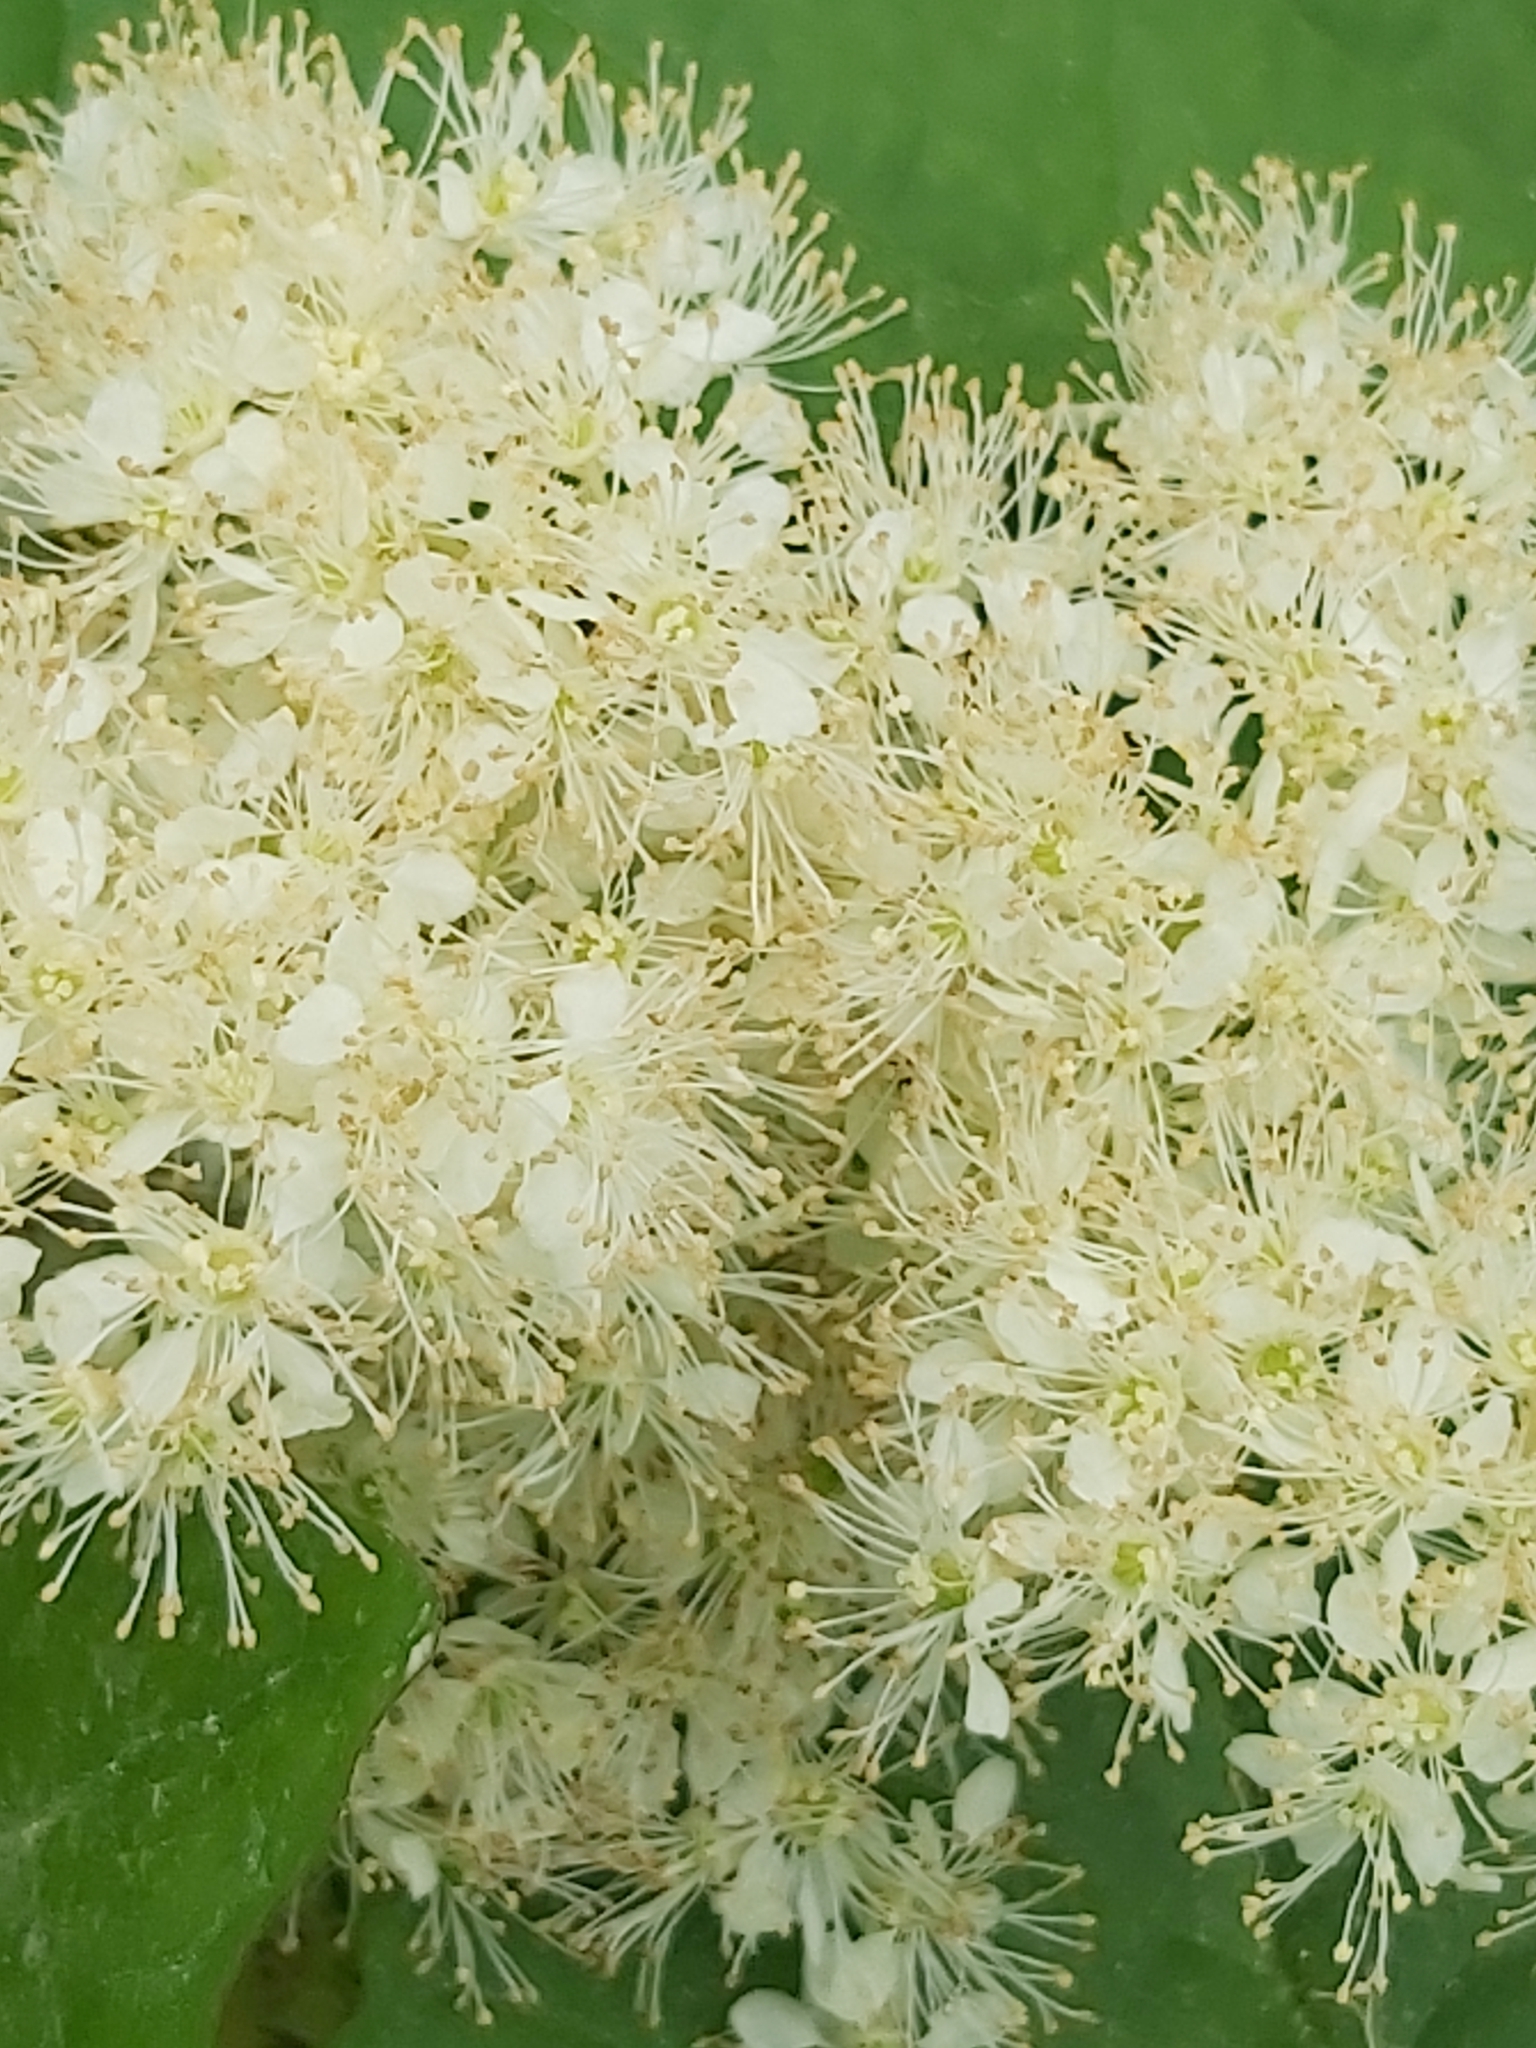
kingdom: Plantae
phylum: Tracheophyta
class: Magnoliopsida
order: Rosales
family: Rosaceae
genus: Filipendula
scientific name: Filipendula ulmaria
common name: Meadowsweet
